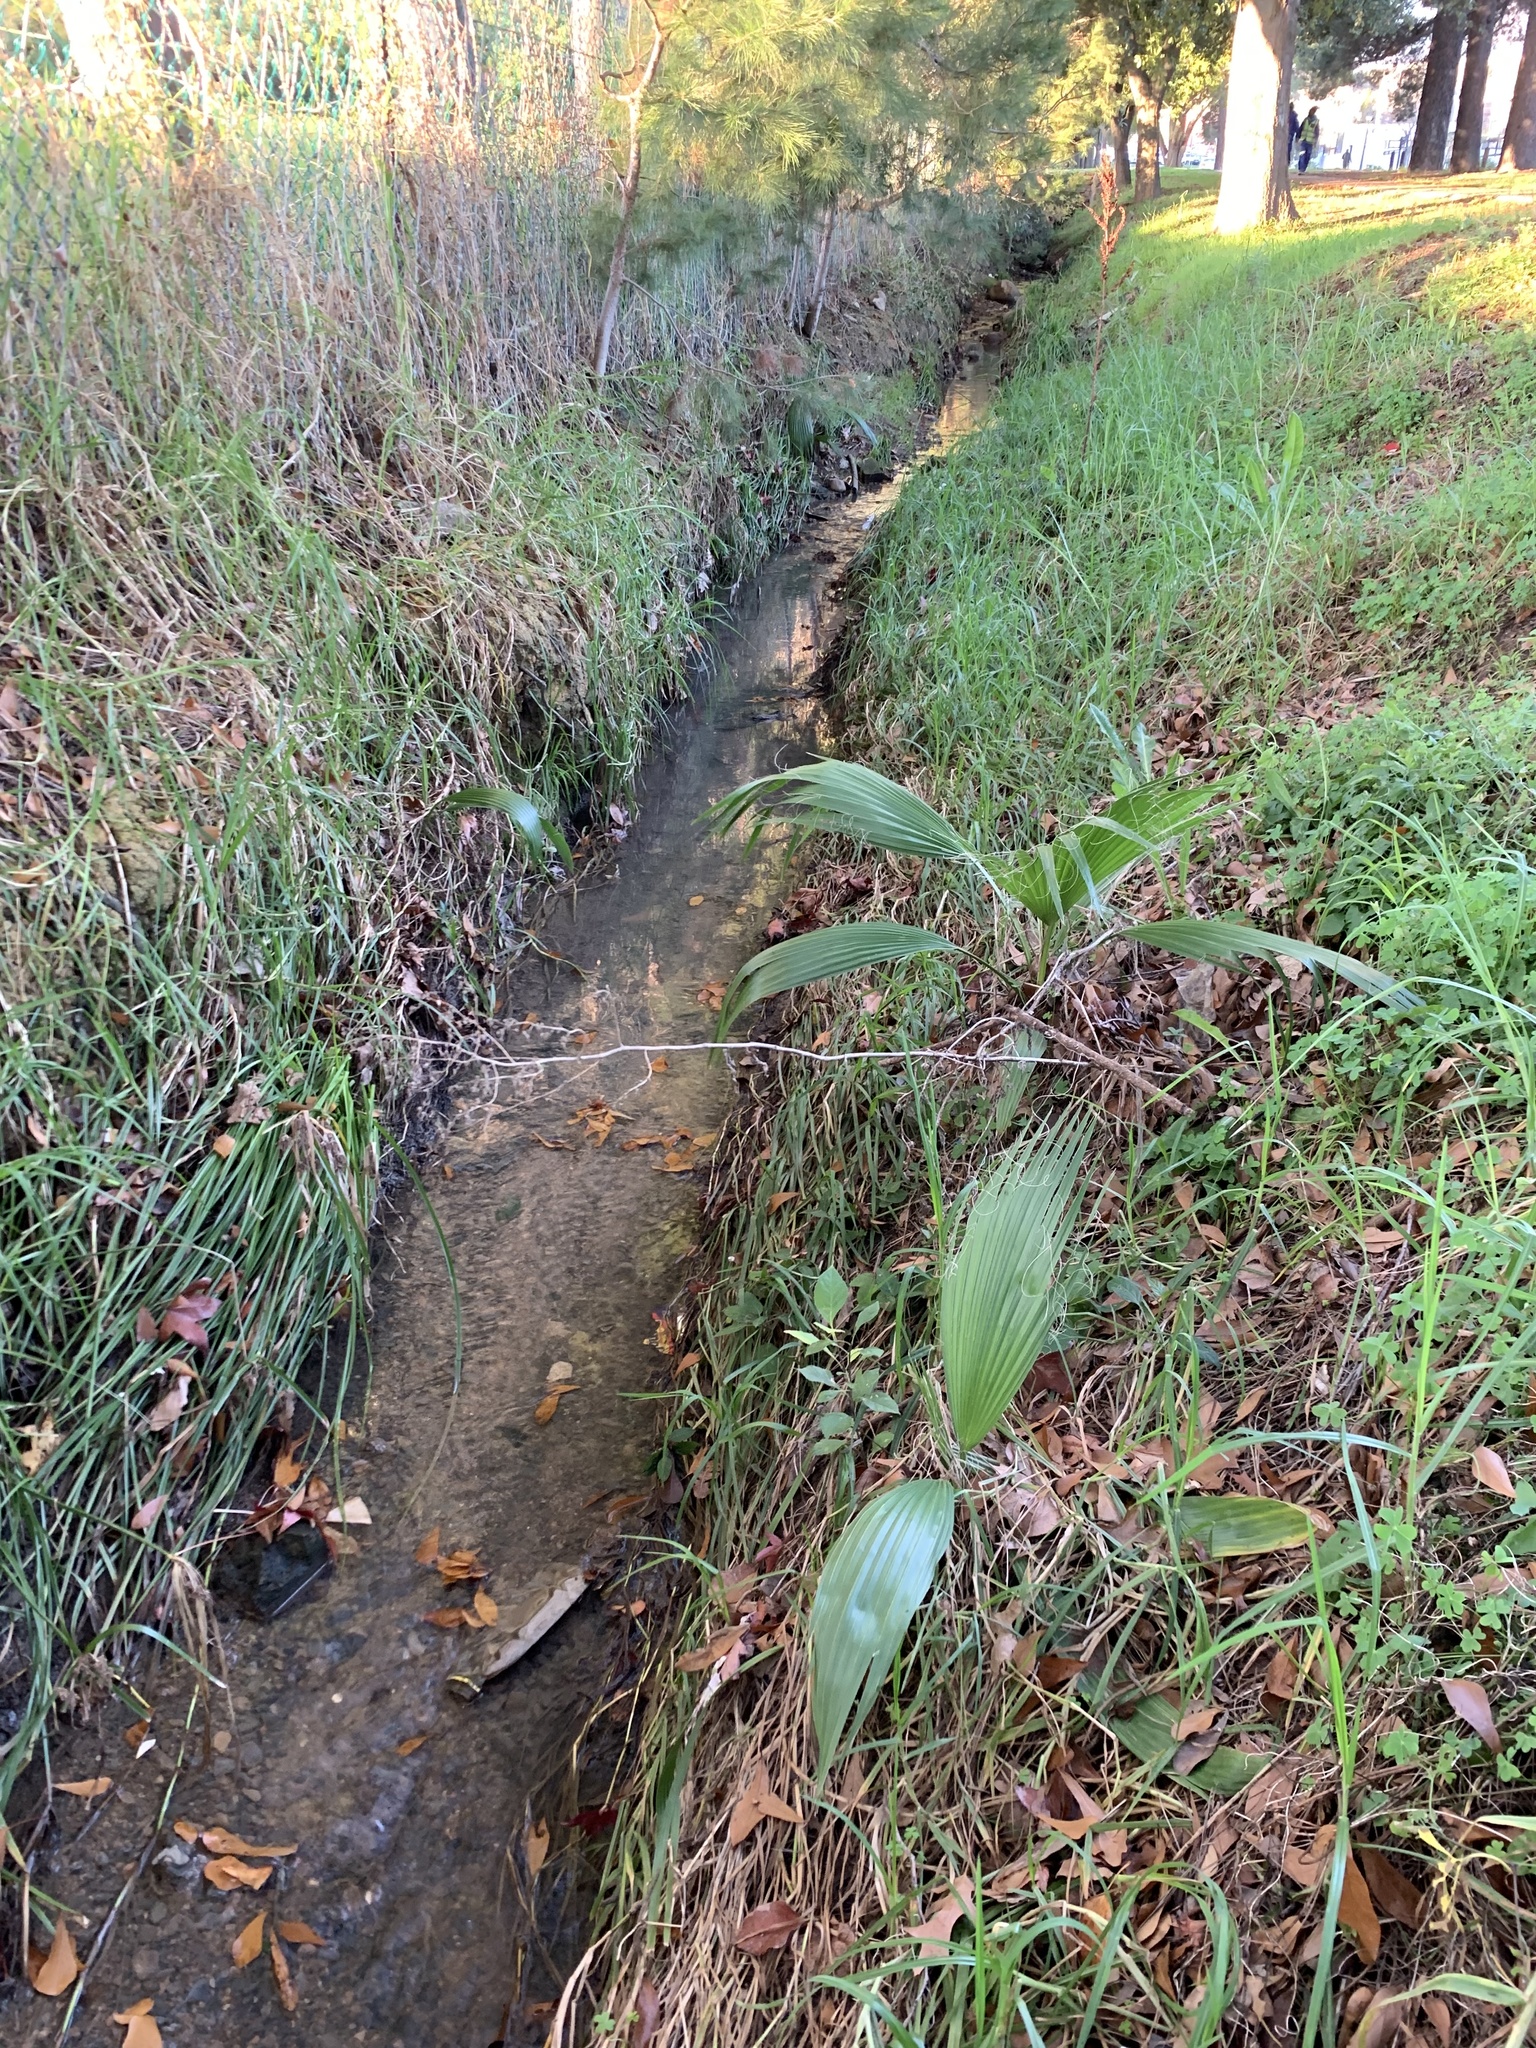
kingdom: Plantae
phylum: Tracheophyta
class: Liliopsida
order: Arecales
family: Arecaceae
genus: Washingtonia
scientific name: Washingtonia robusta
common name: Mexican fan palm
